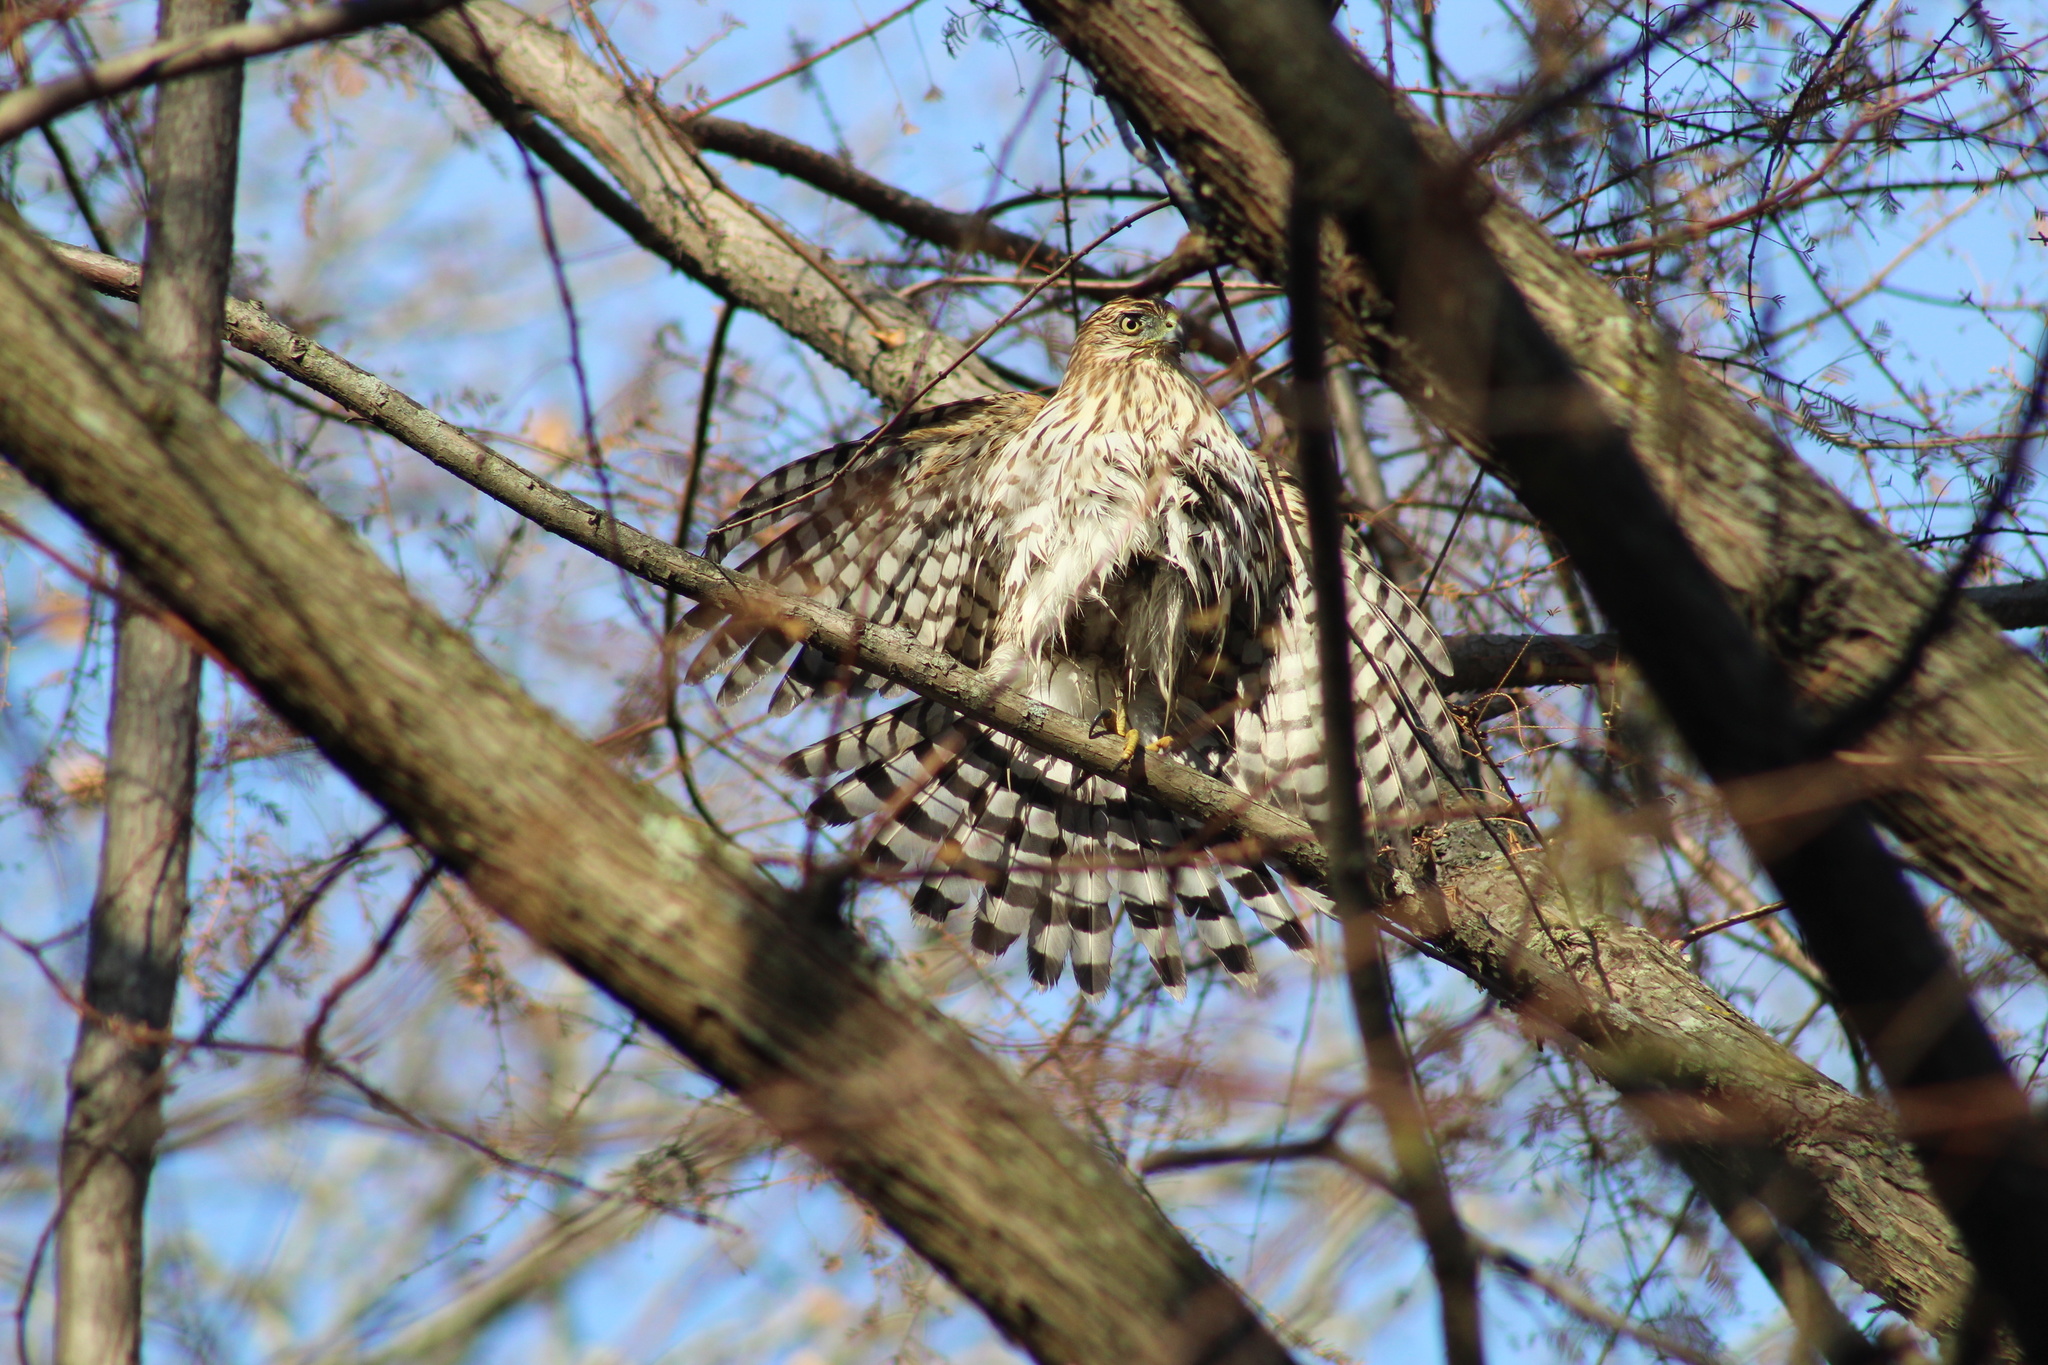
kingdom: Animalia
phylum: Chordata
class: Aves
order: Accipitriformes
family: Accipitridae
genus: Accipiter
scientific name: Accipiter cooperii
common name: Cooper's hawk
